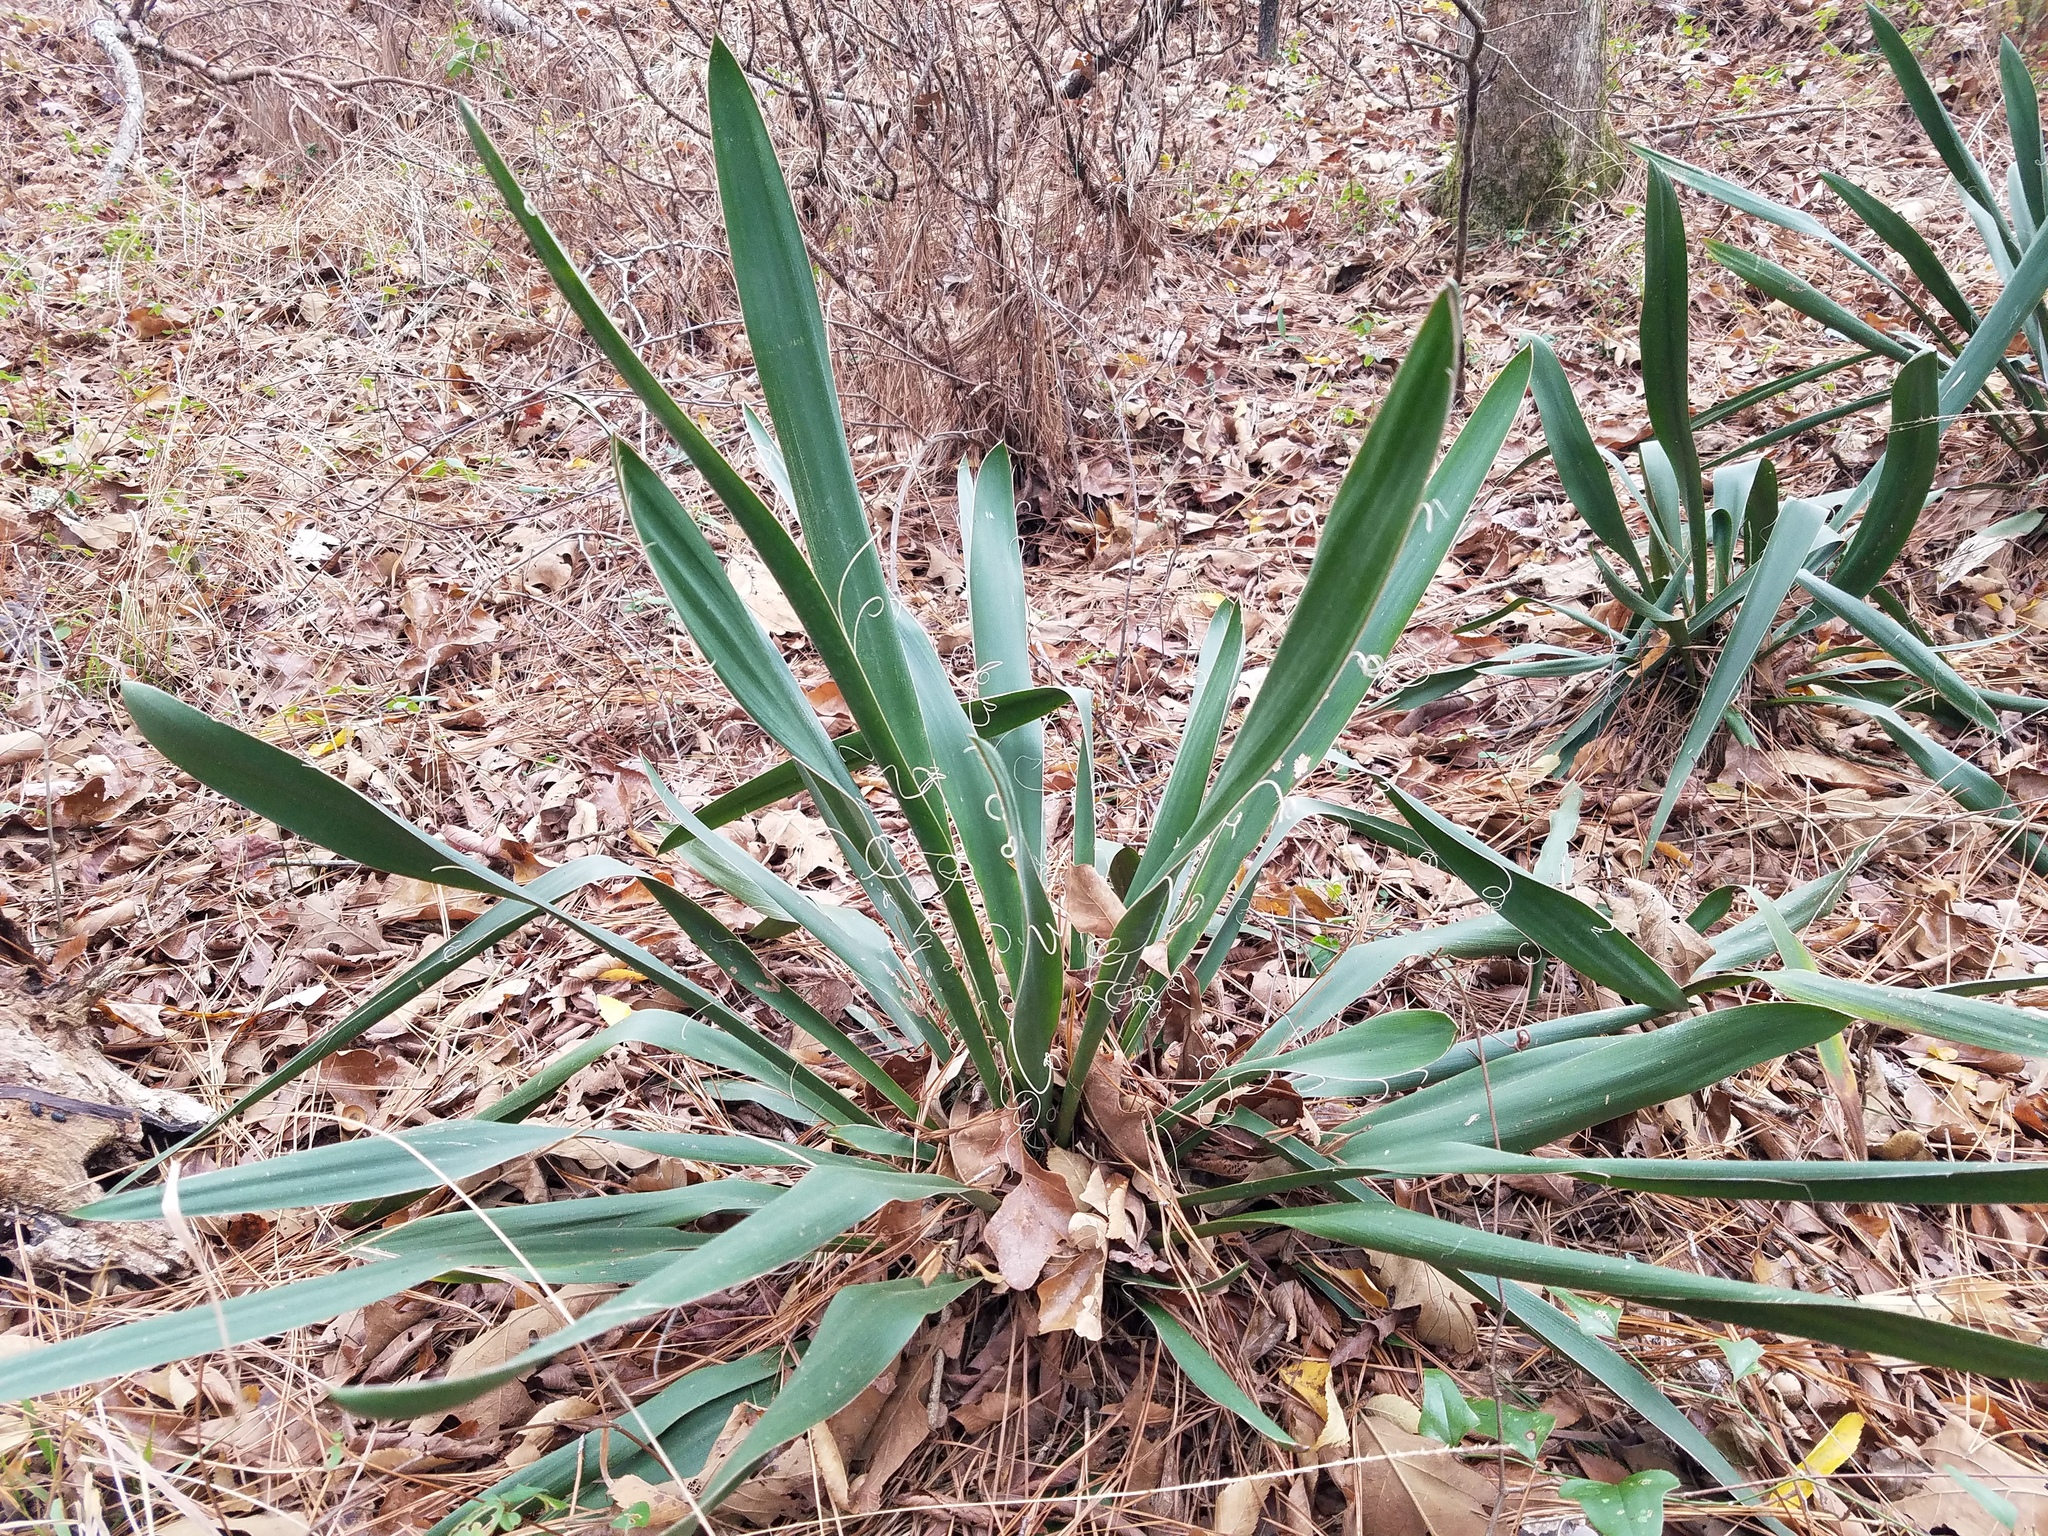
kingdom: Plantae
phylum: Tracheophyta
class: Liliopsida
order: Asparagales
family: Asparagaceae
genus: Yucca
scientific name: Yucca filamentosa
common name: Adam's-needle
